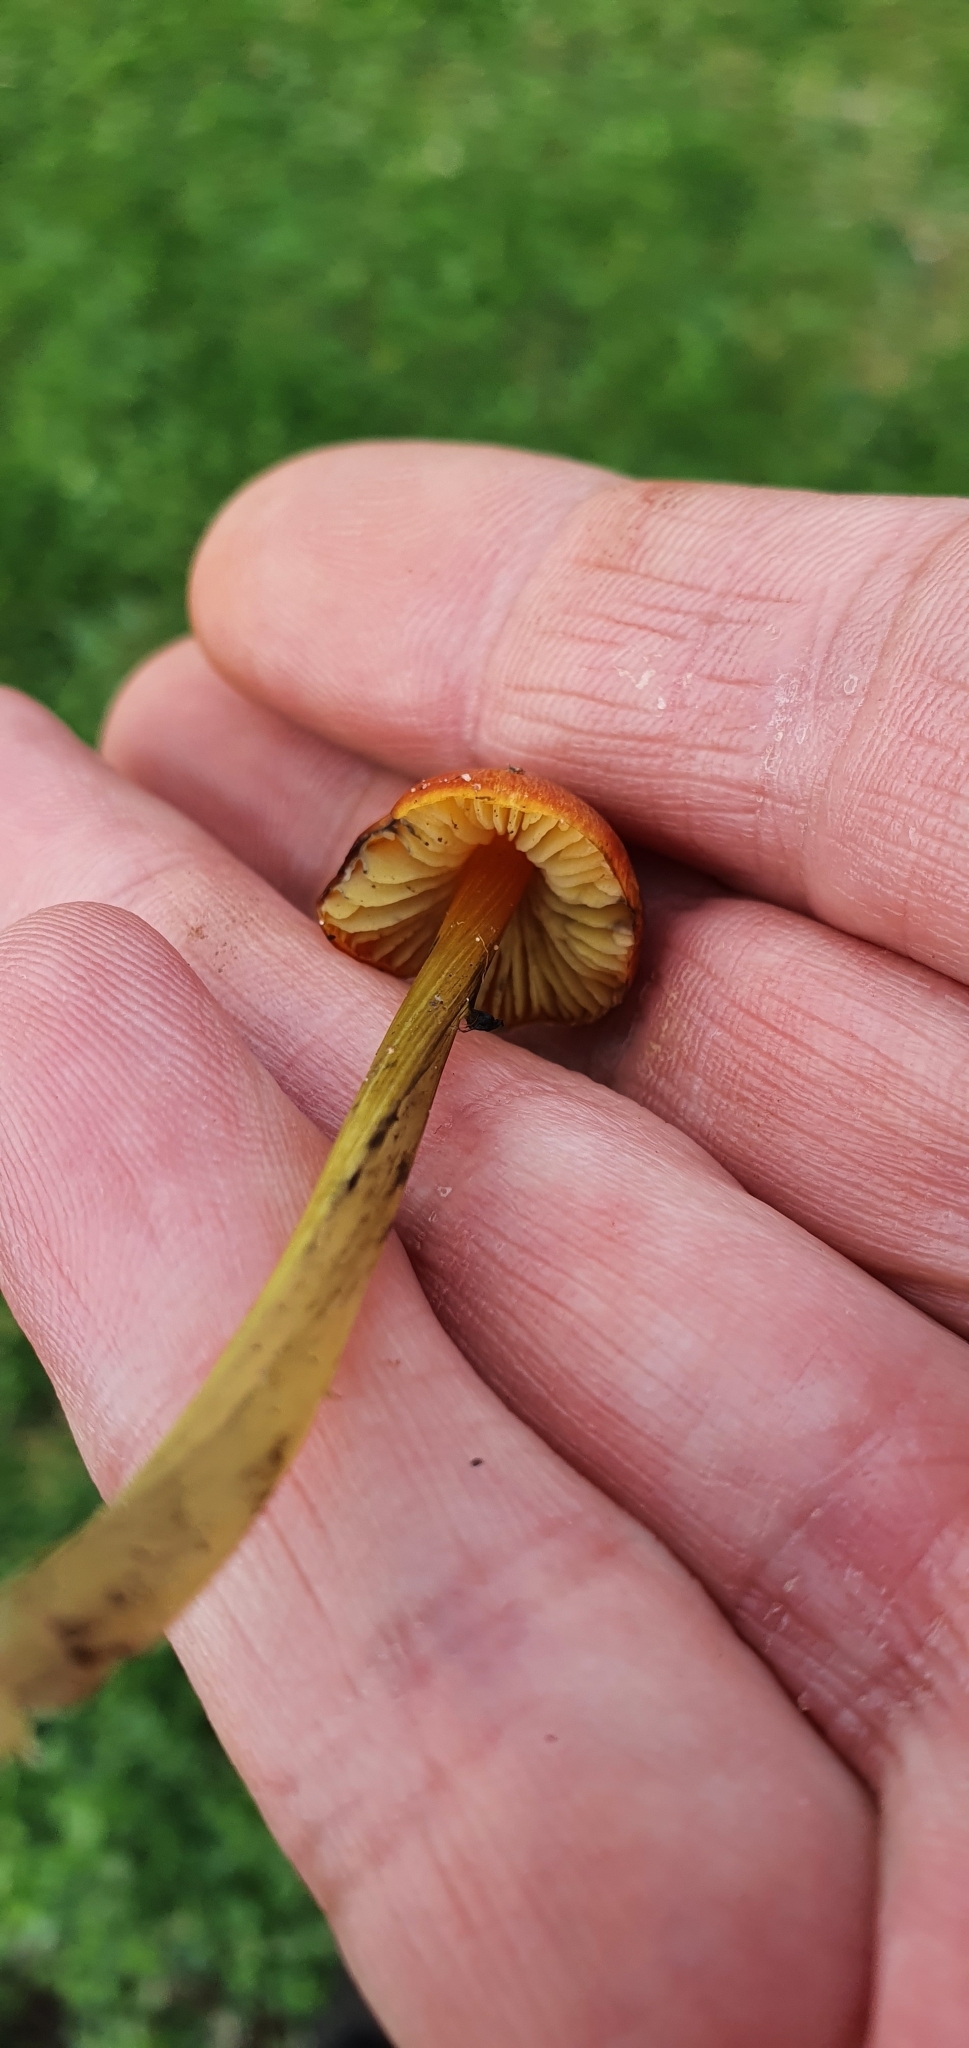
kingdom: Fungi
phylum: Basidiomycota
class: Agaricomycetes
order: Agaricales
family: Hygrophoraceae
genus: Hygrocybe
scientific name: Hygrocybe conica
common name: Blackening wax-cap
